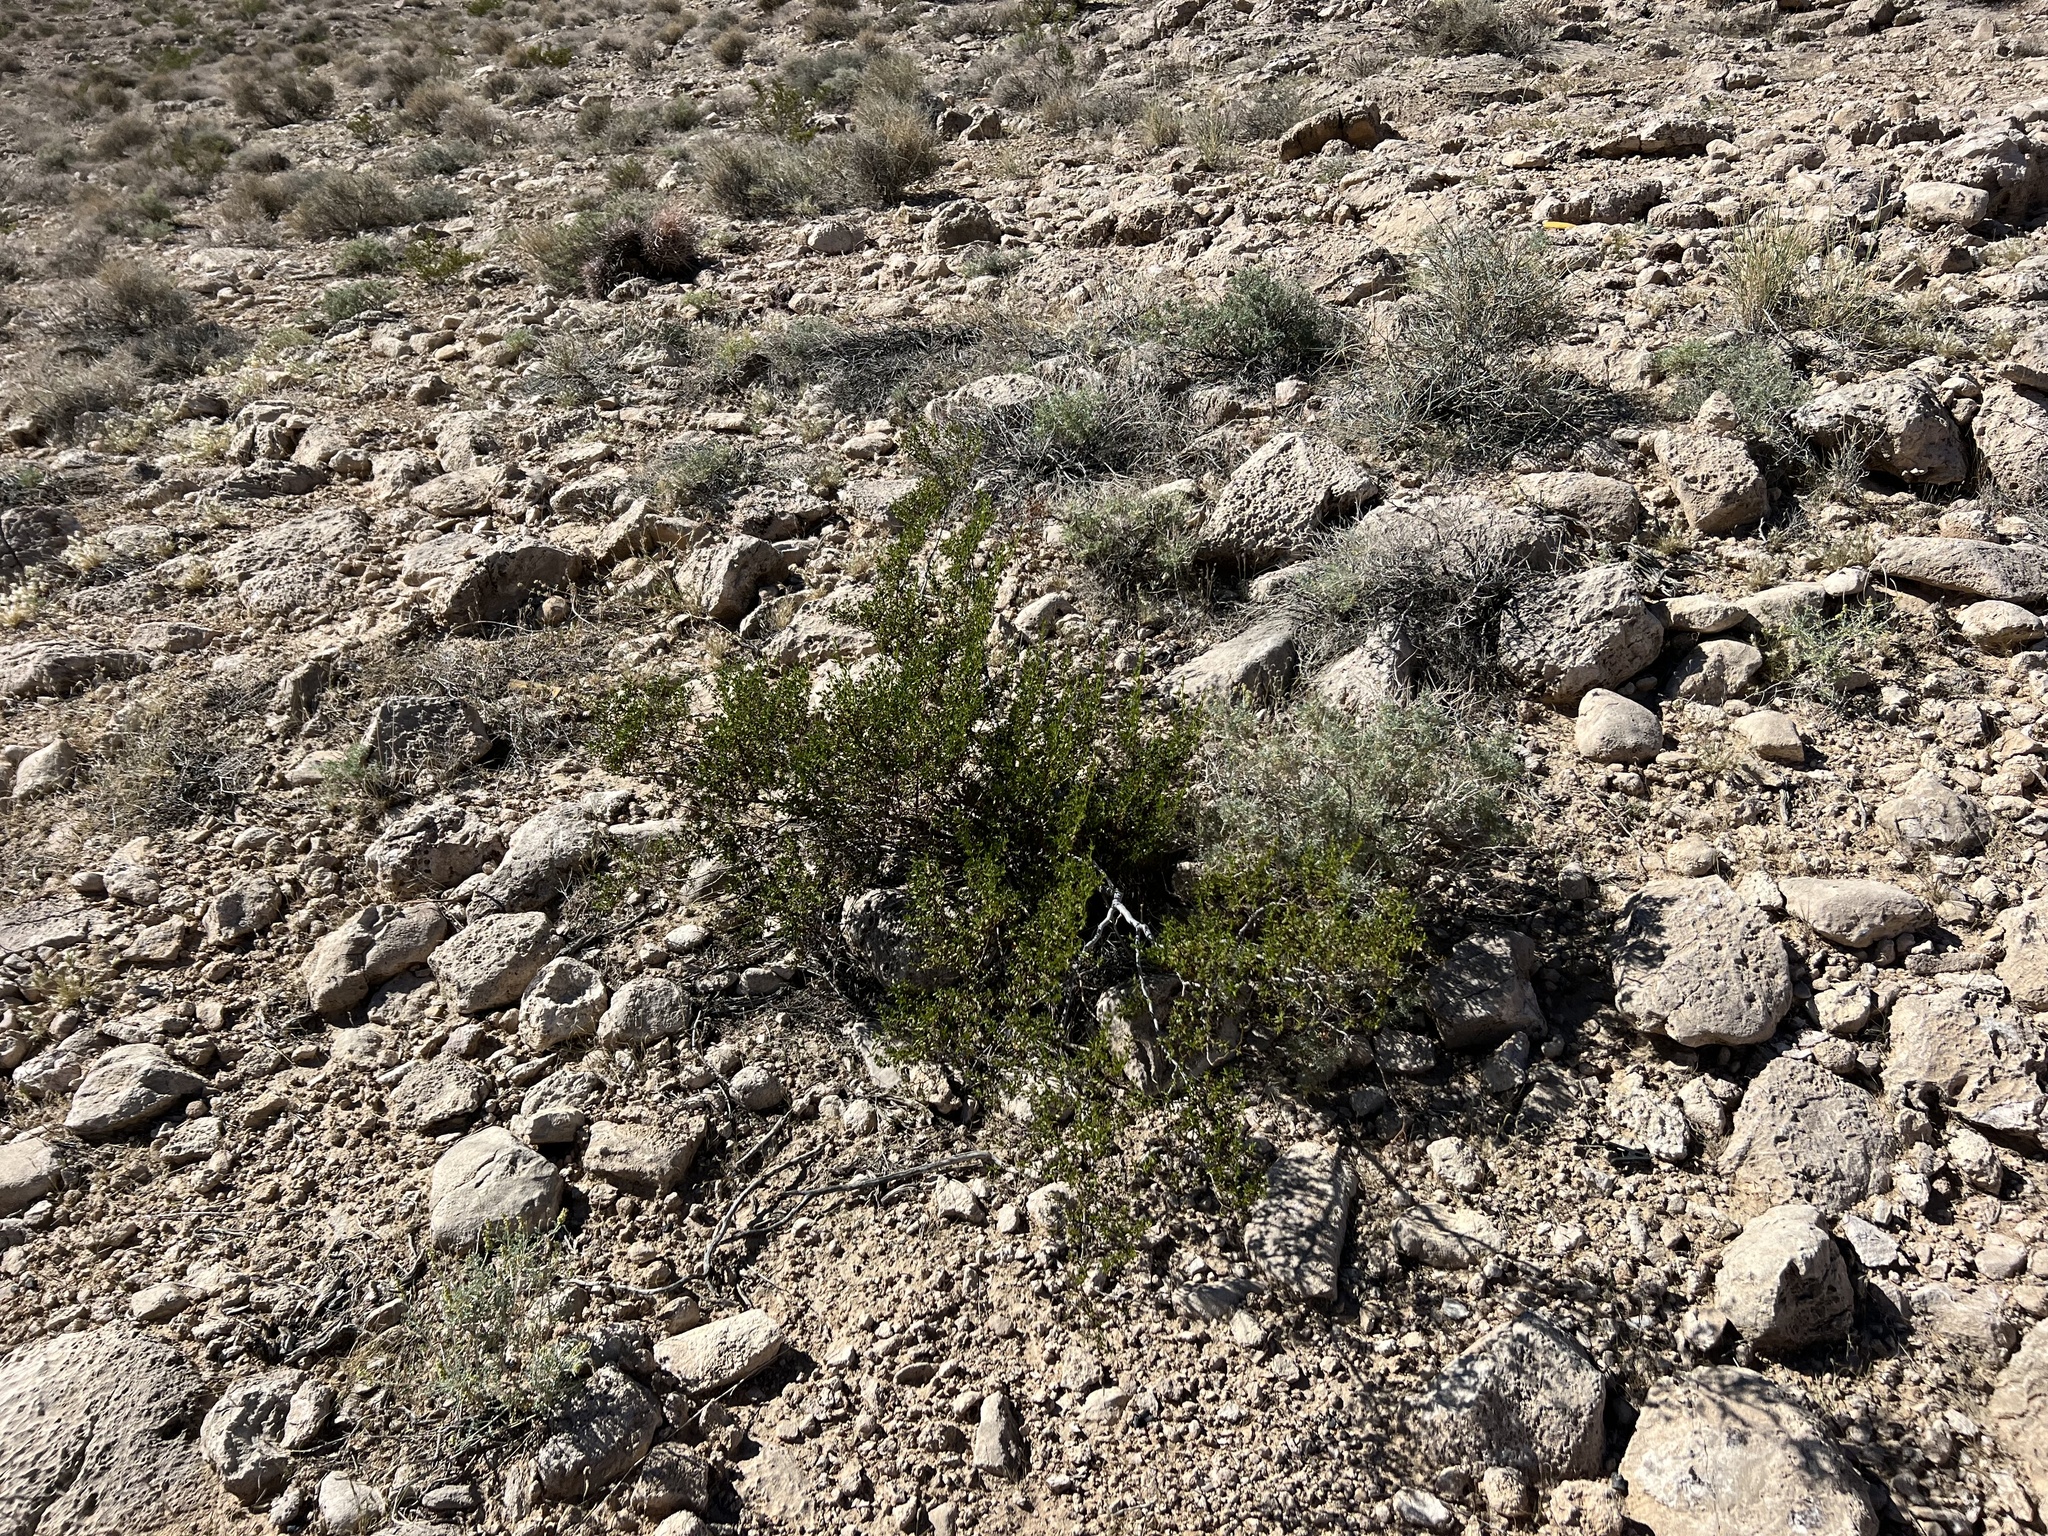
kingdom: Plantae
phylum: Tracheophyta
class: Magnoliopsida
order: Zygophyllales
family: Zygophyllaceae
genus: Larrea
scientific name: Larrea tridentata
